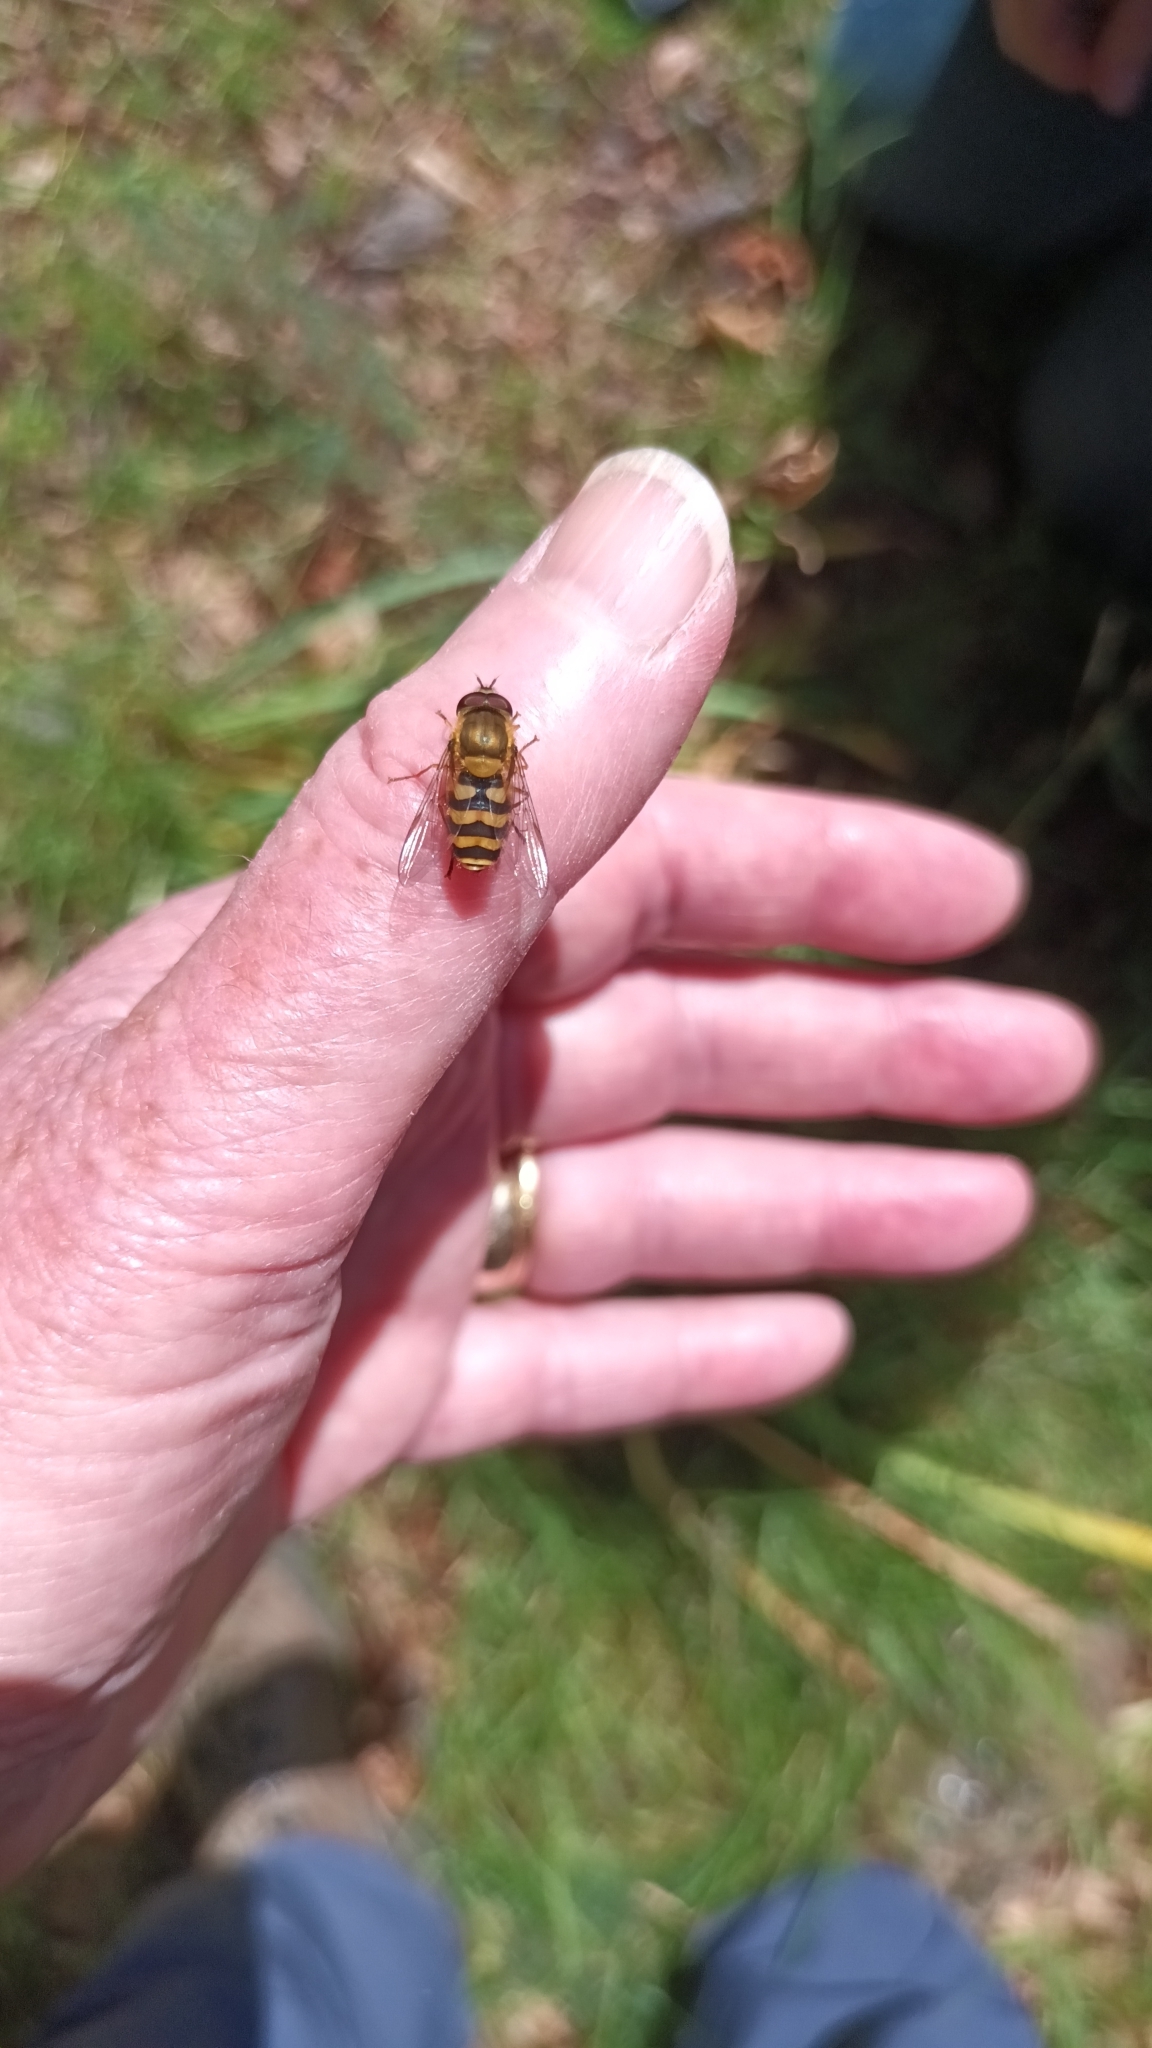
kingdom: Animalia
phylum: Arthropoda
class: Insecta
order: Diptera
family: Syrphidae
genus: Syrphus
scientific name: Syrphus
